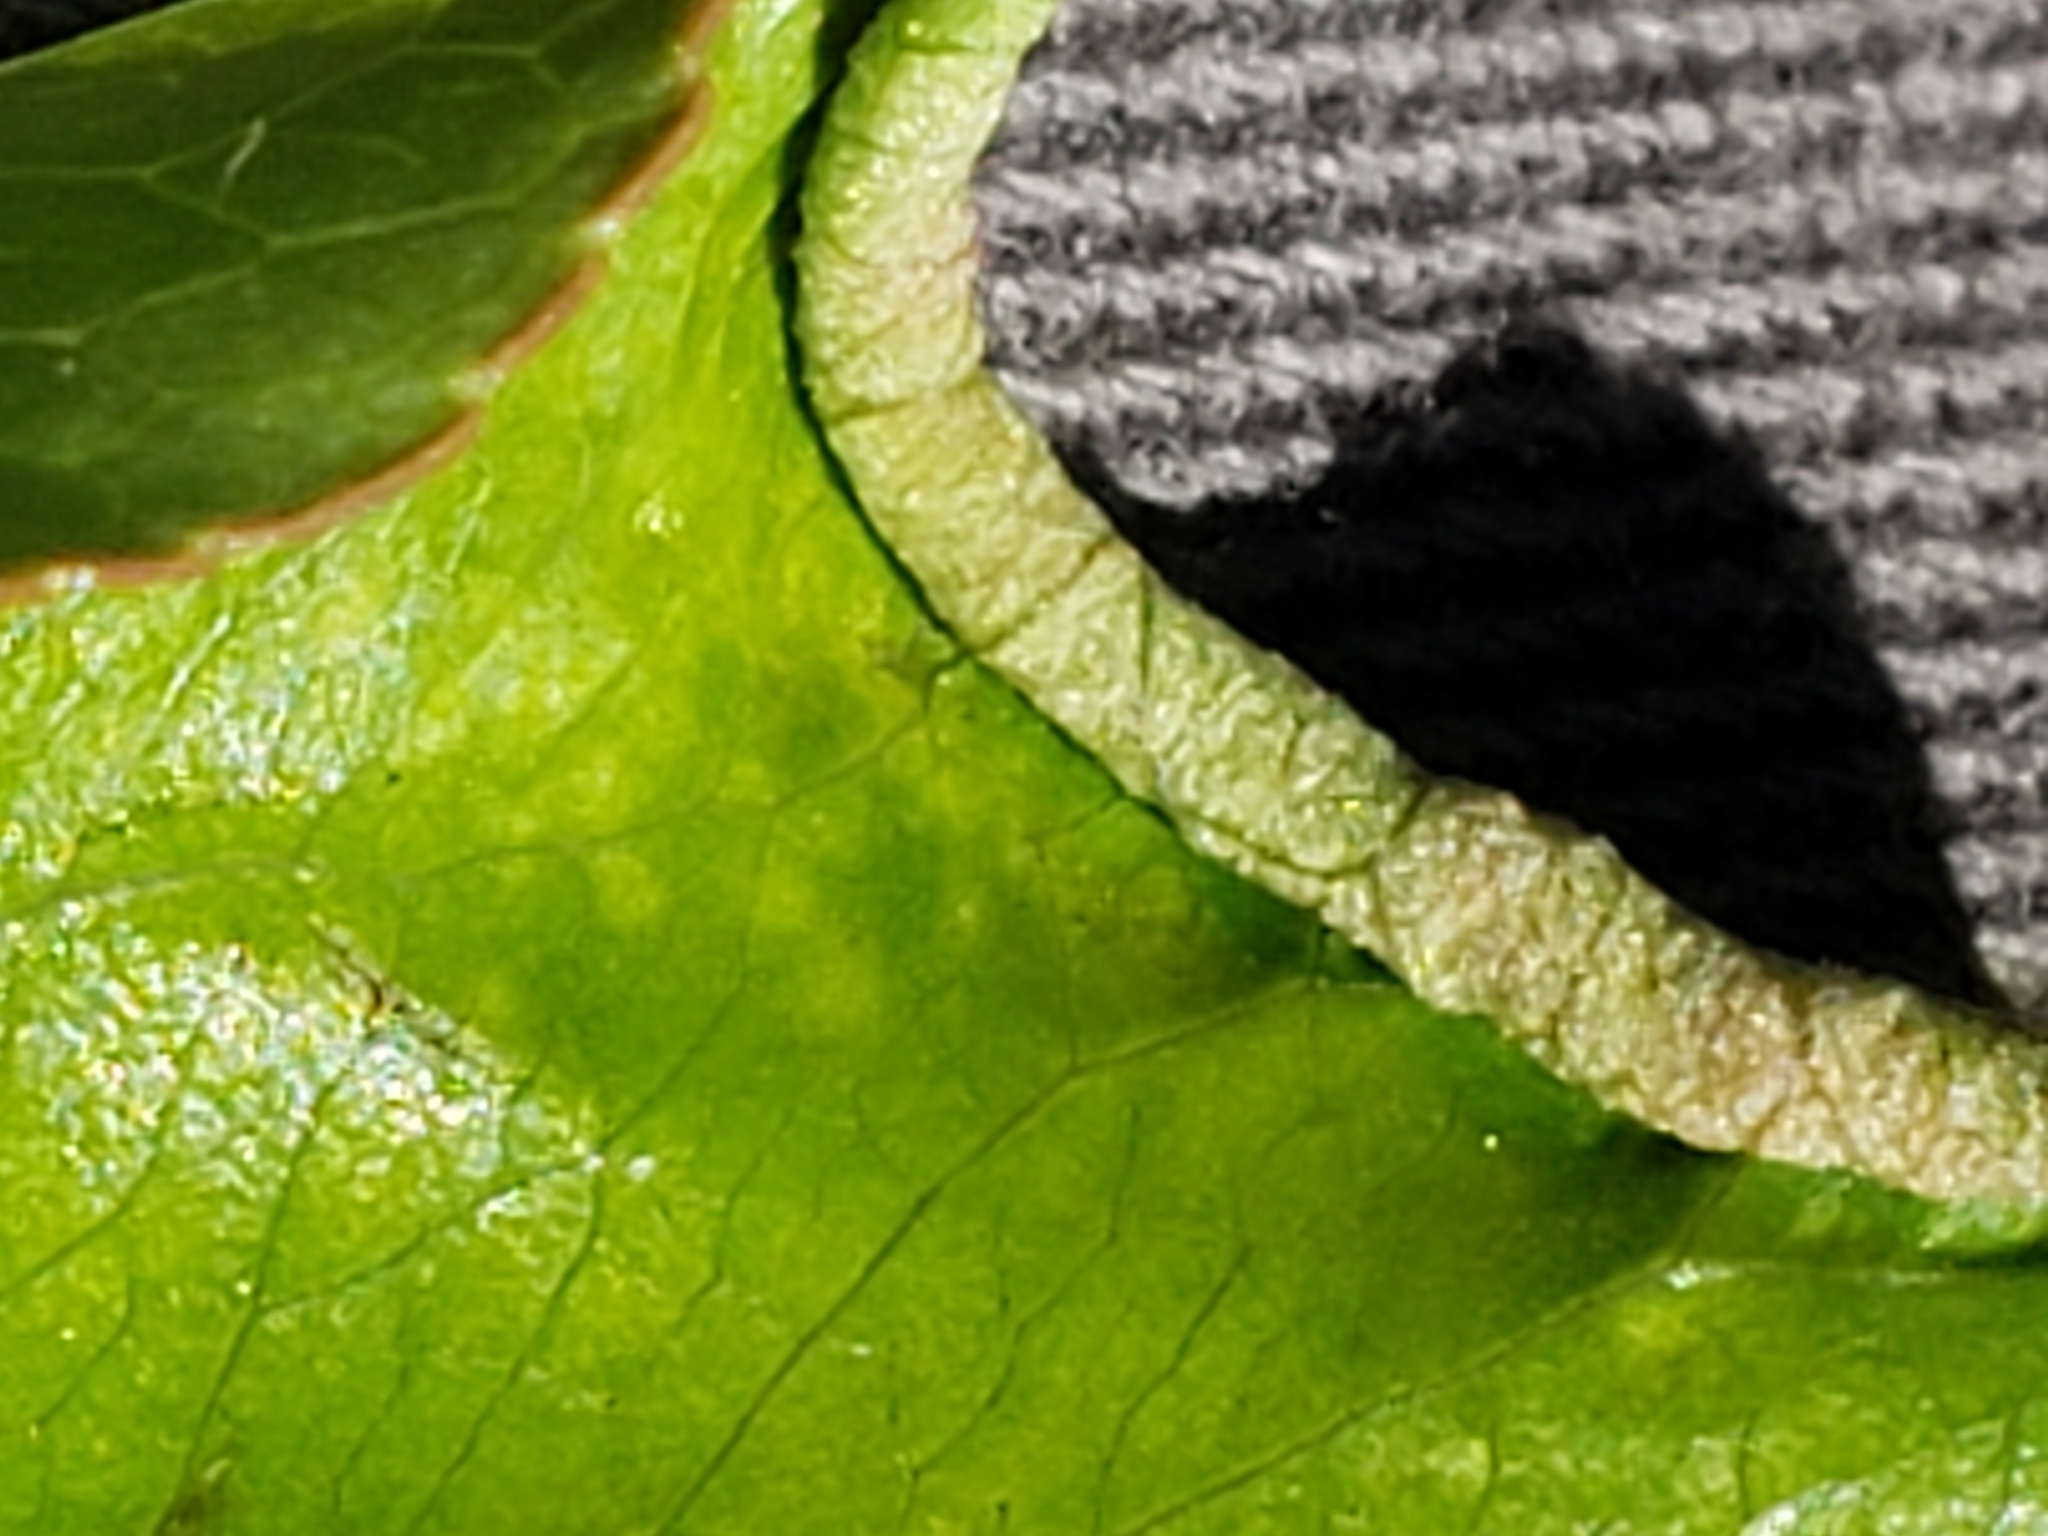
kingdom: Animalia
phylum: Arthropoda
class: Arachnida
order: Trombidiformes
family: Eriophyidae
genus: Eriophyes
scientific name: Eriophyes marginemtorquens
